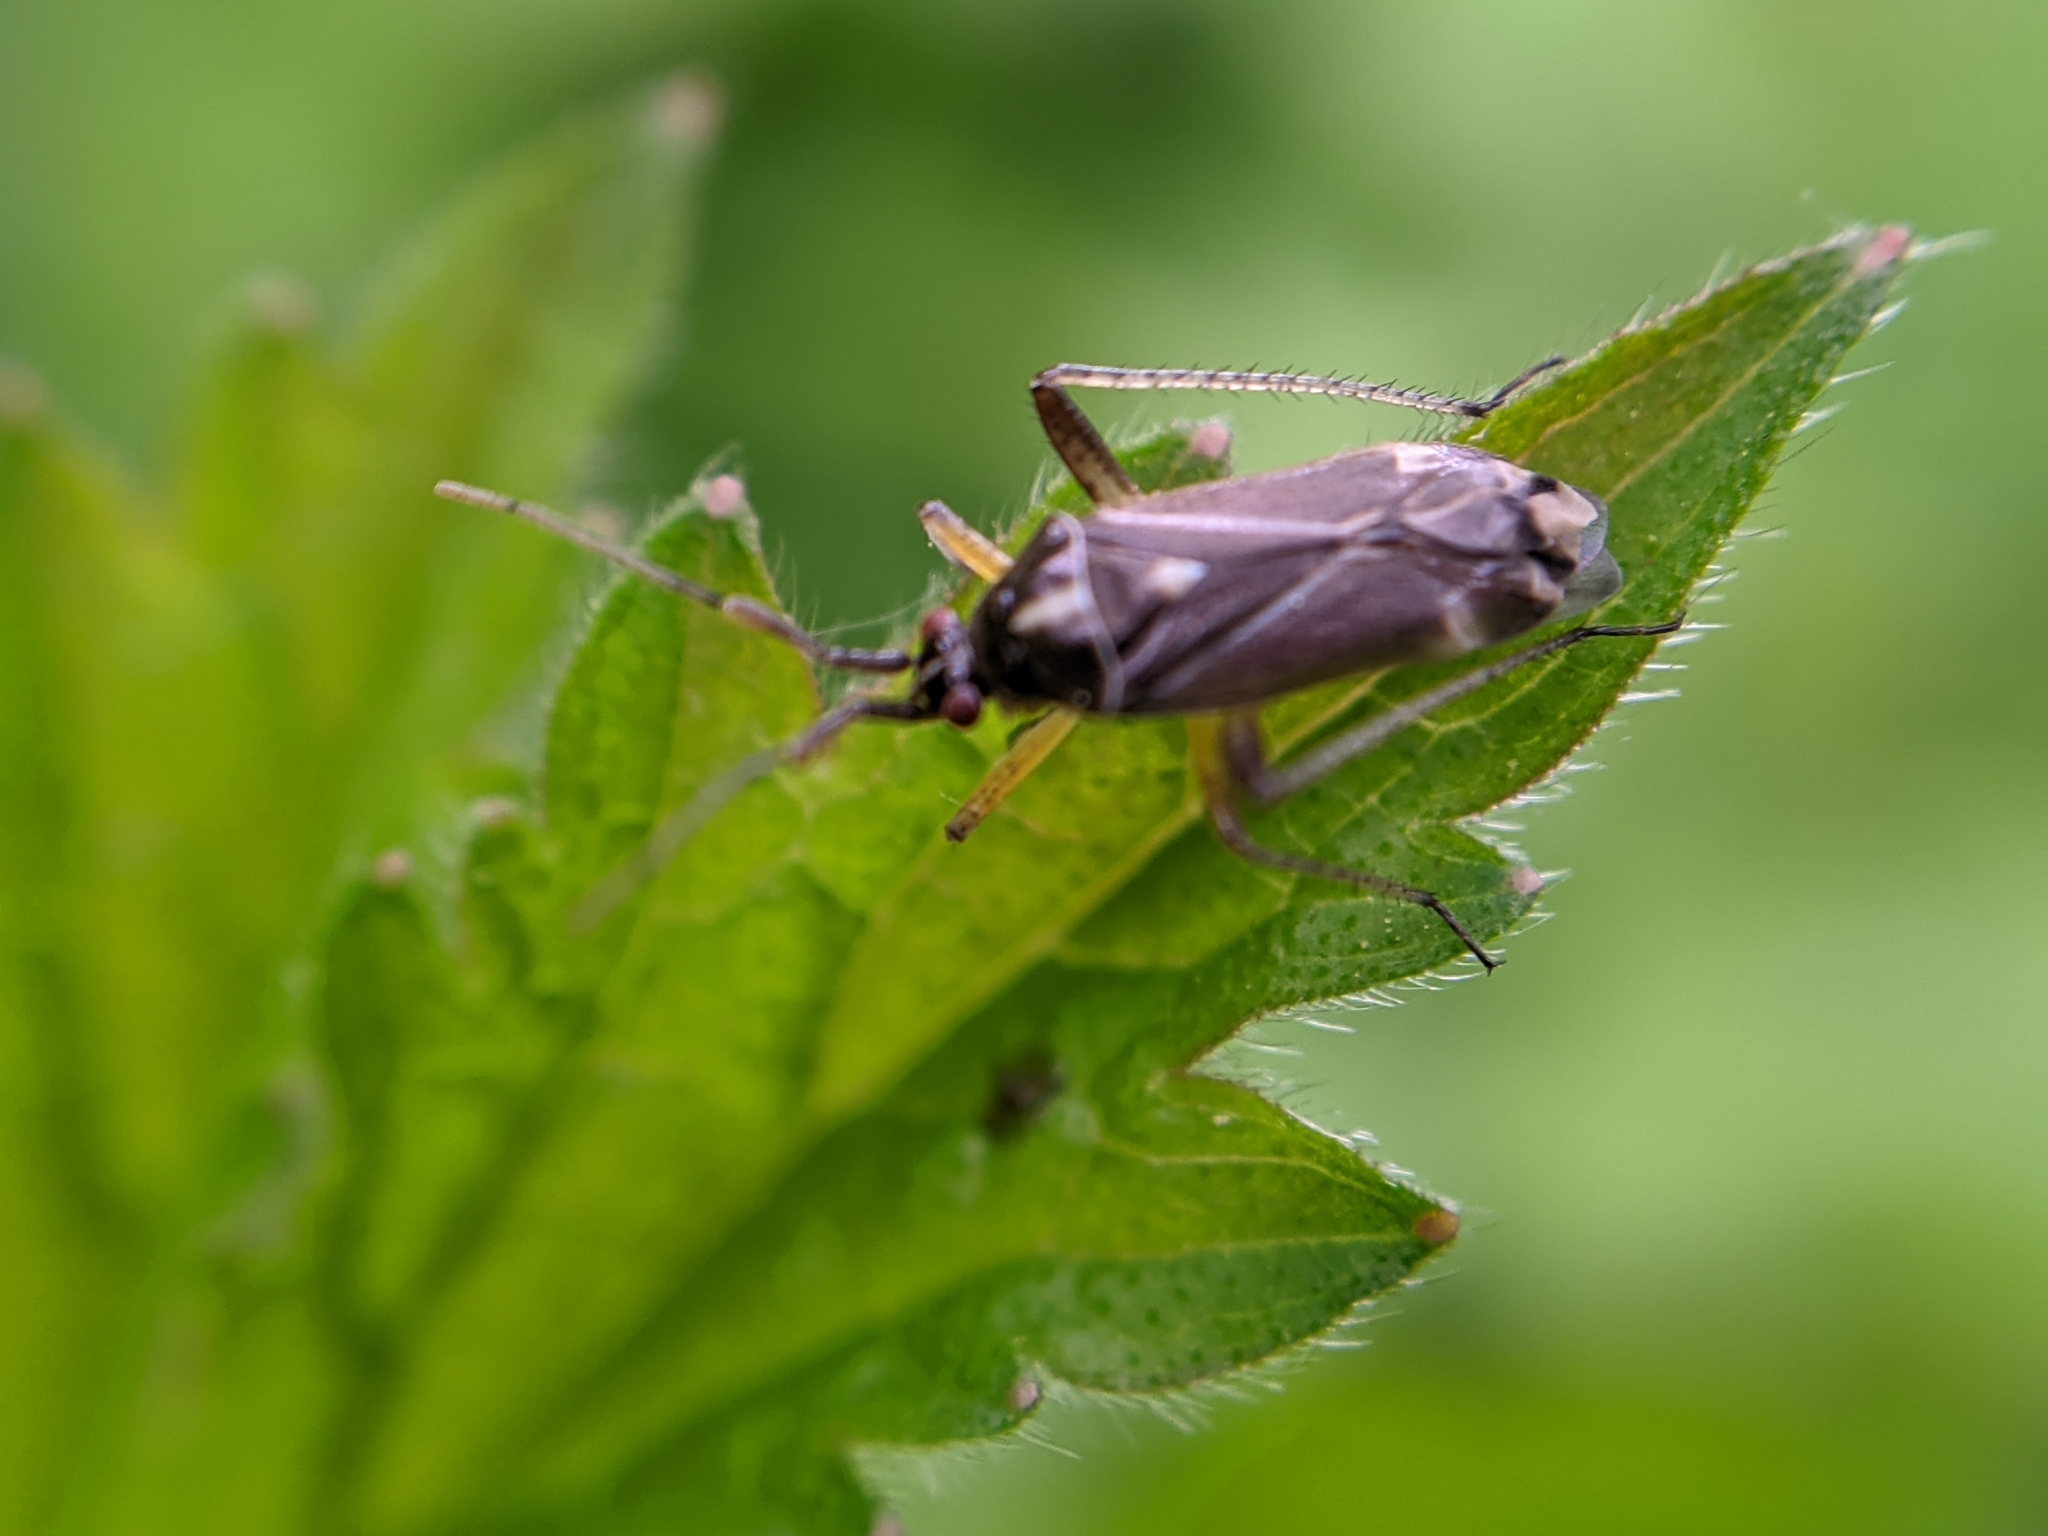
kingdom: Animalia
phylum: Arthropoda
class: Insecta
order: Hemiptera
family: Miridae
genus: Harpocera
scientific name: Harpocera thoracica
